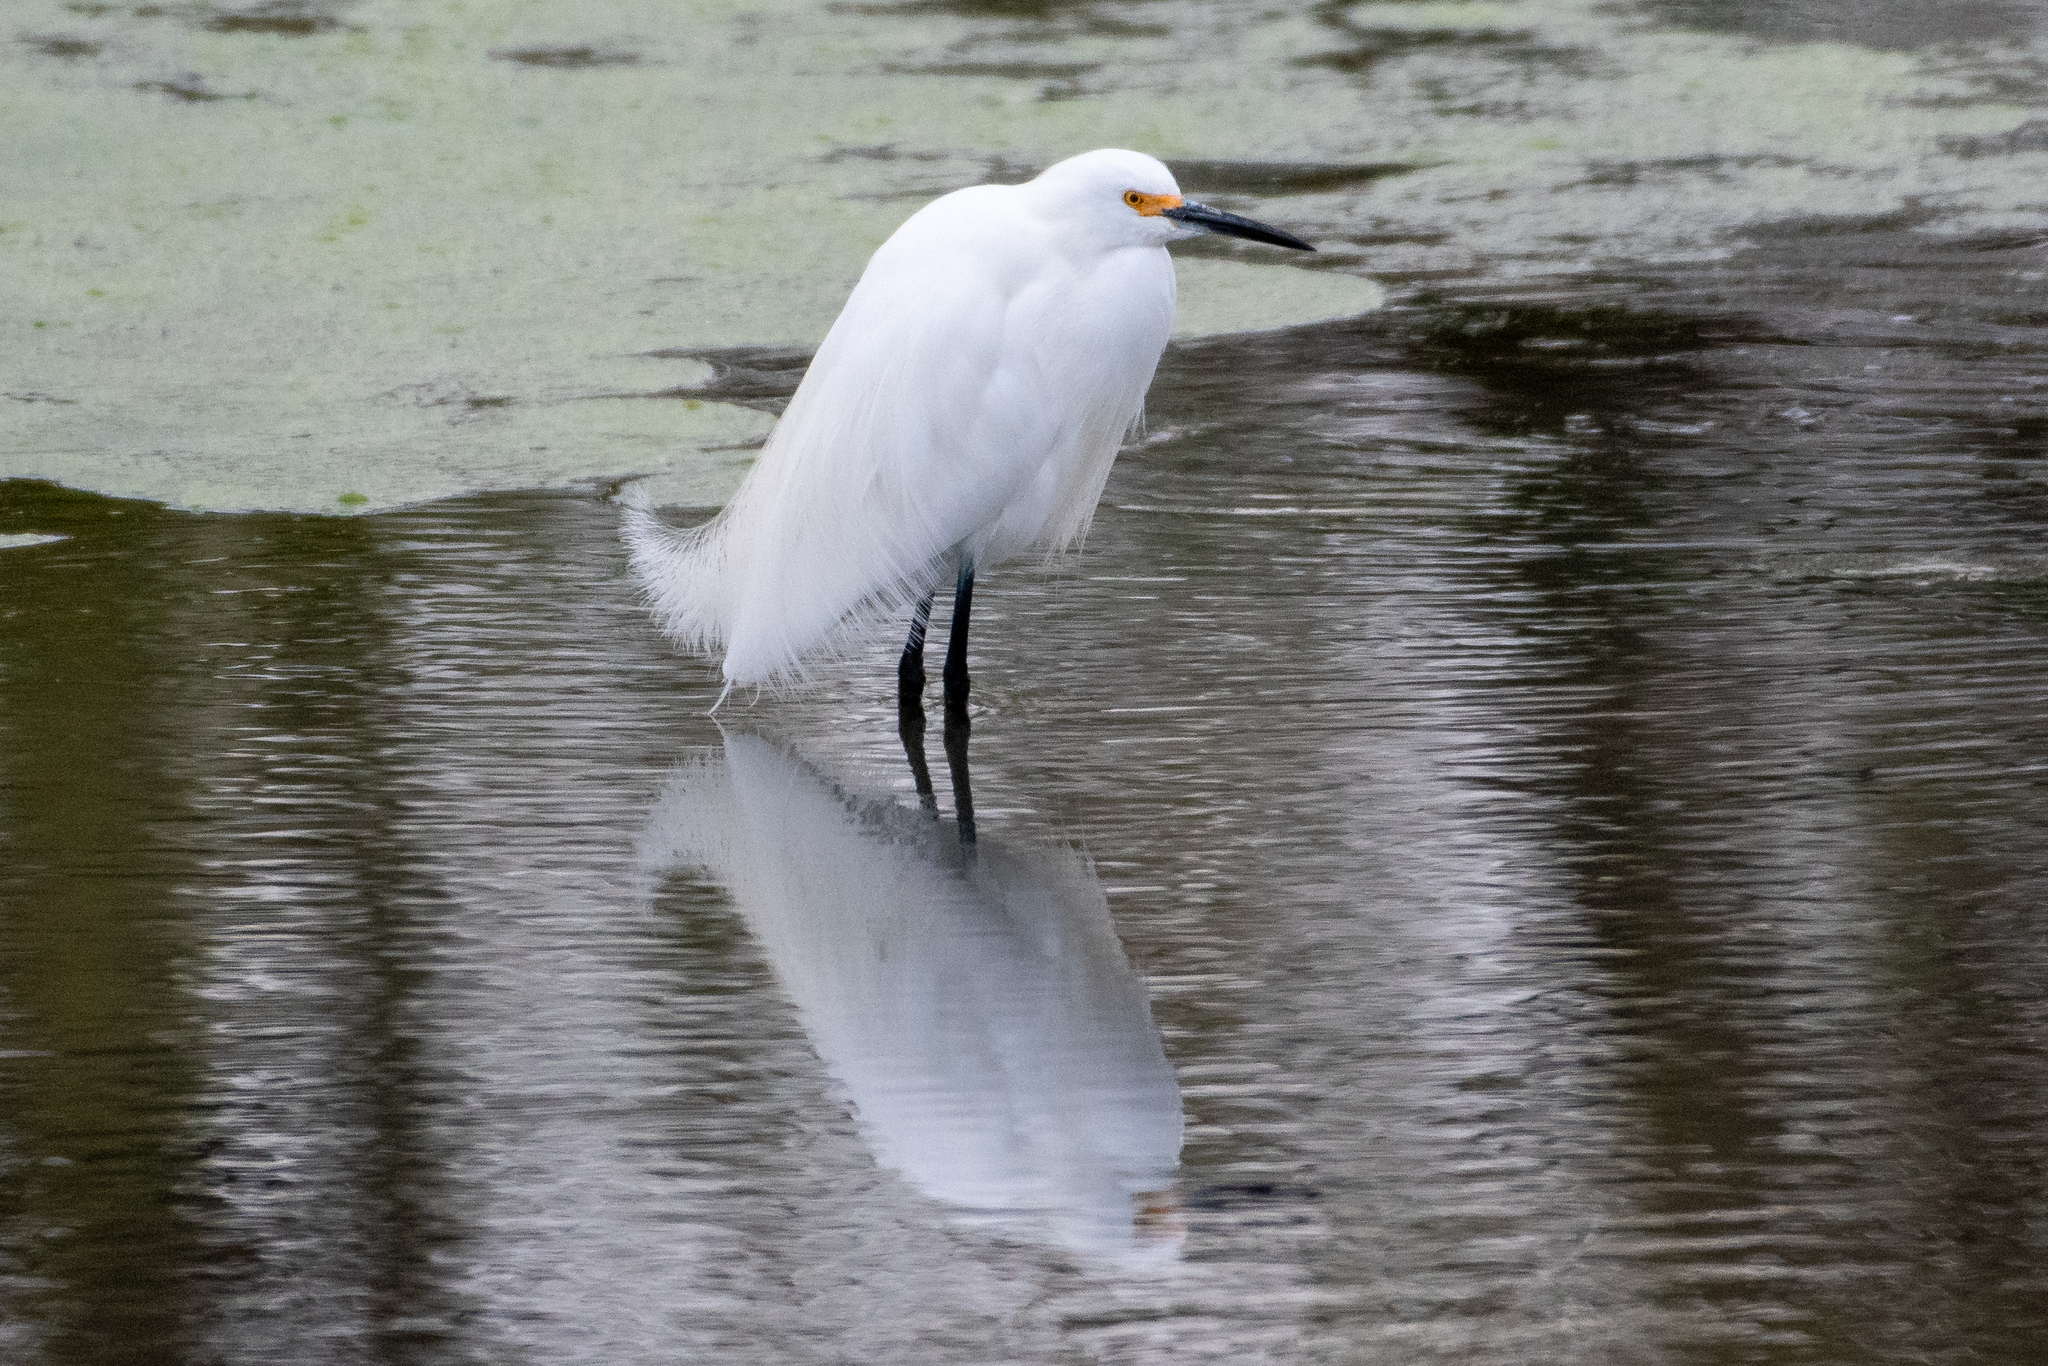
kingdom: Animalia
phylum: Chordata
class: Aves
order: Pelecaniformes
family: Ardeidae
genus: Egretta
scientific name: Egretta thula
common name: Snowy egret
